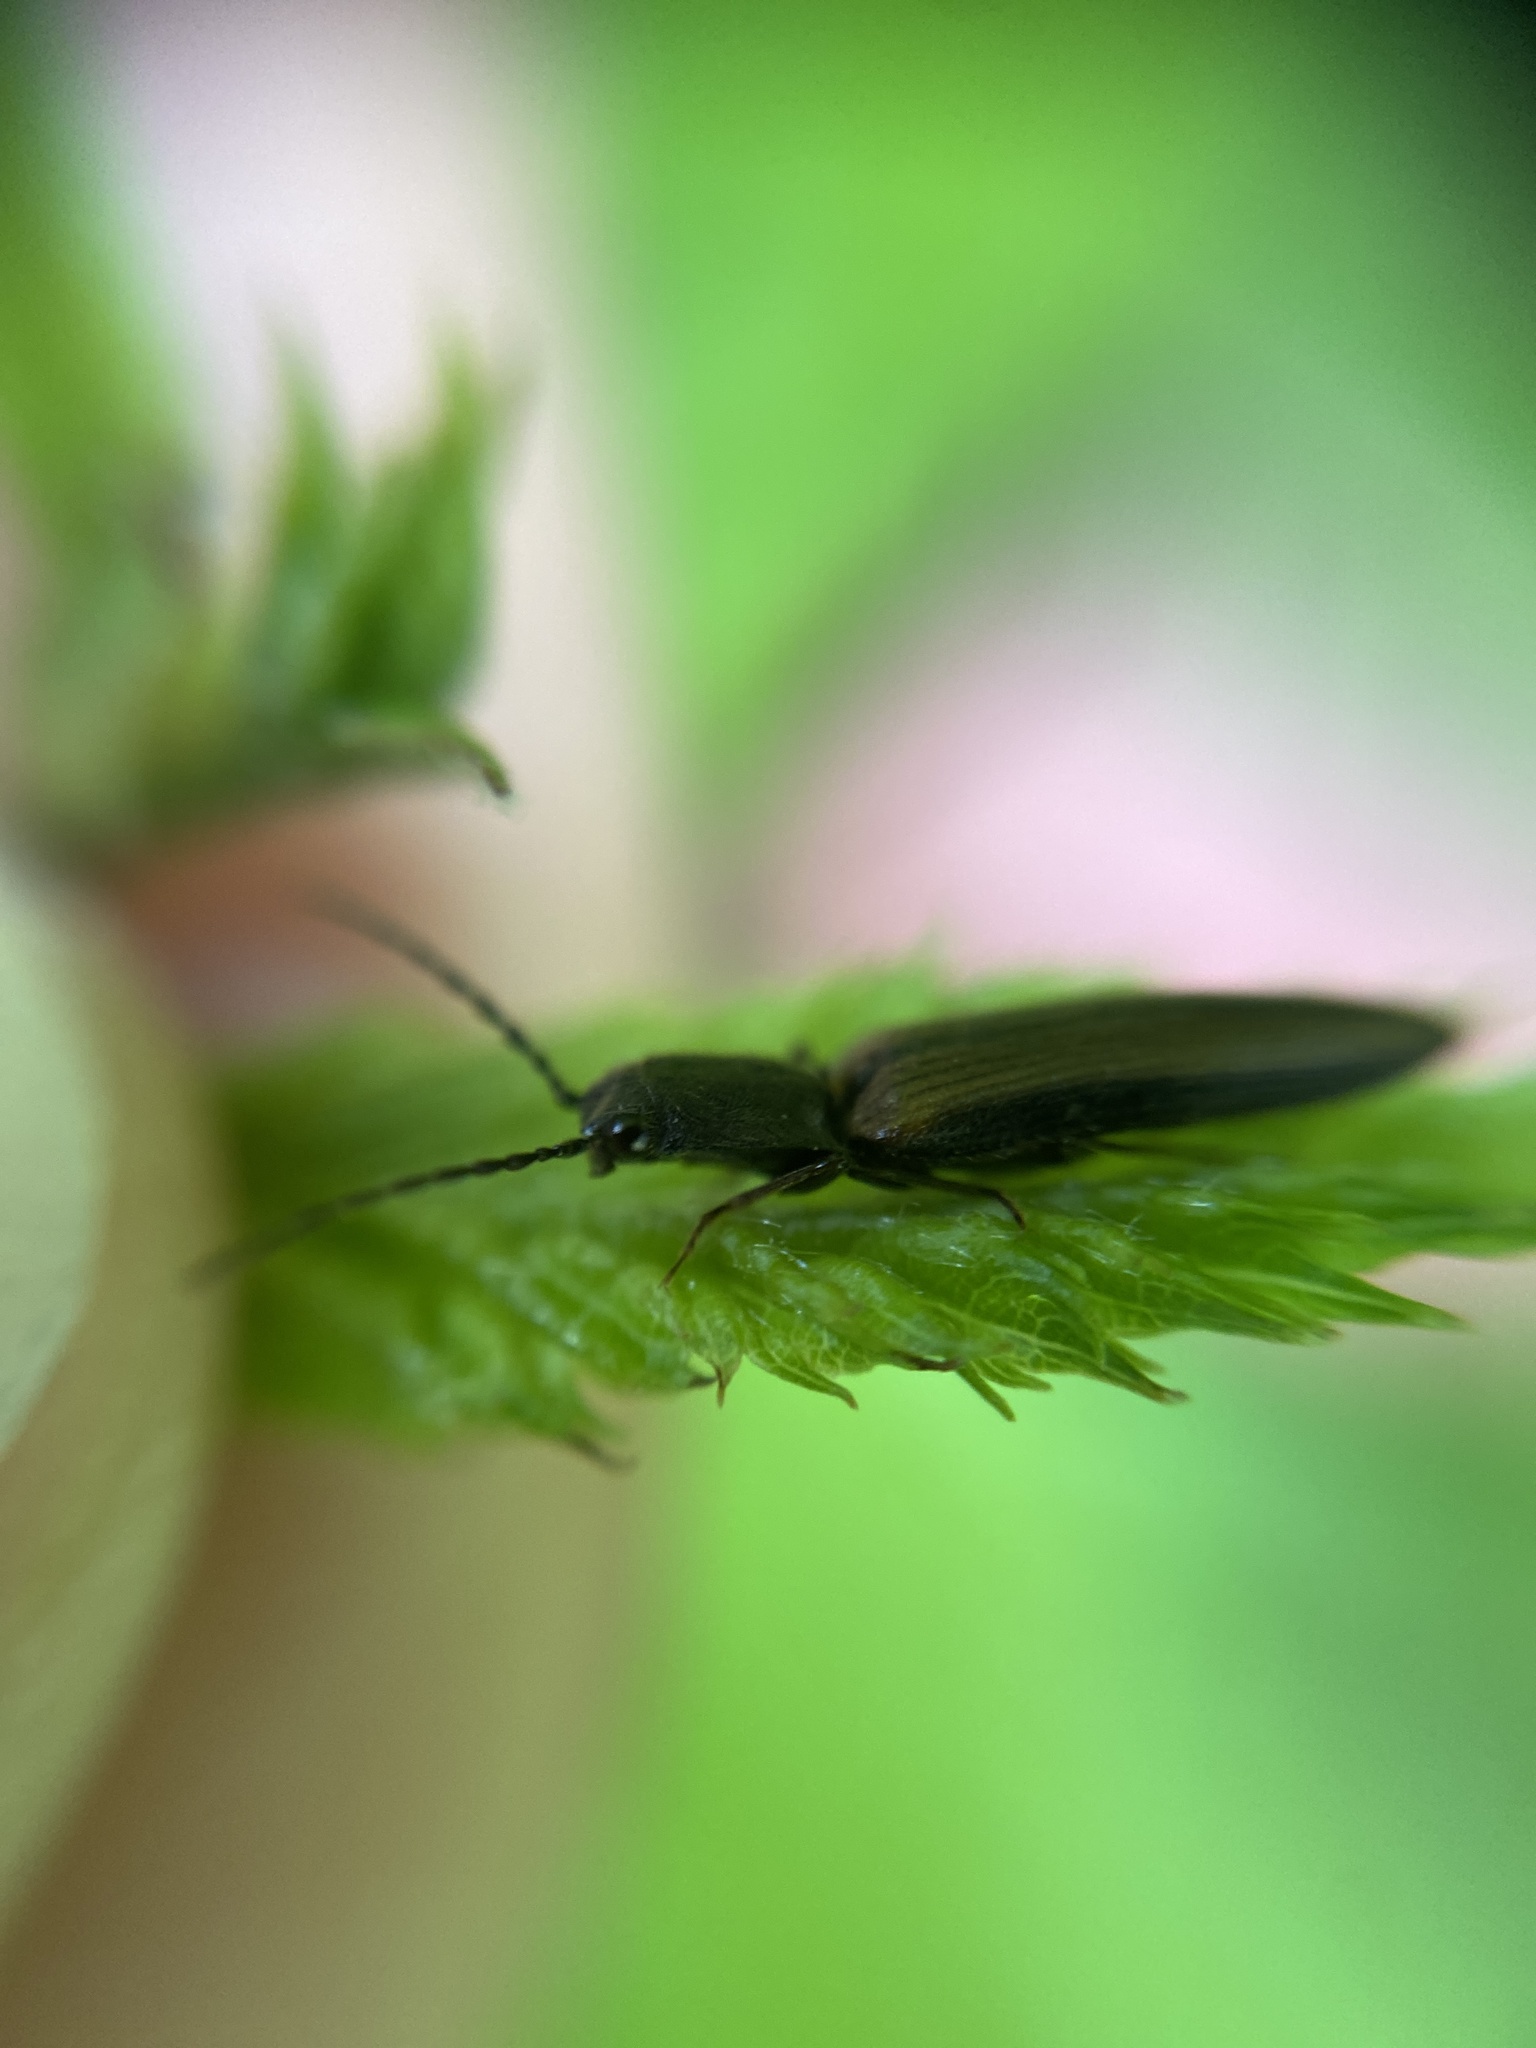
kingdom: Animalia
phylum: Arthropoda
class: Insecta
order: Coleoptera
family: Elateridae
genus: Athous
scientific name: Athous bicolor
